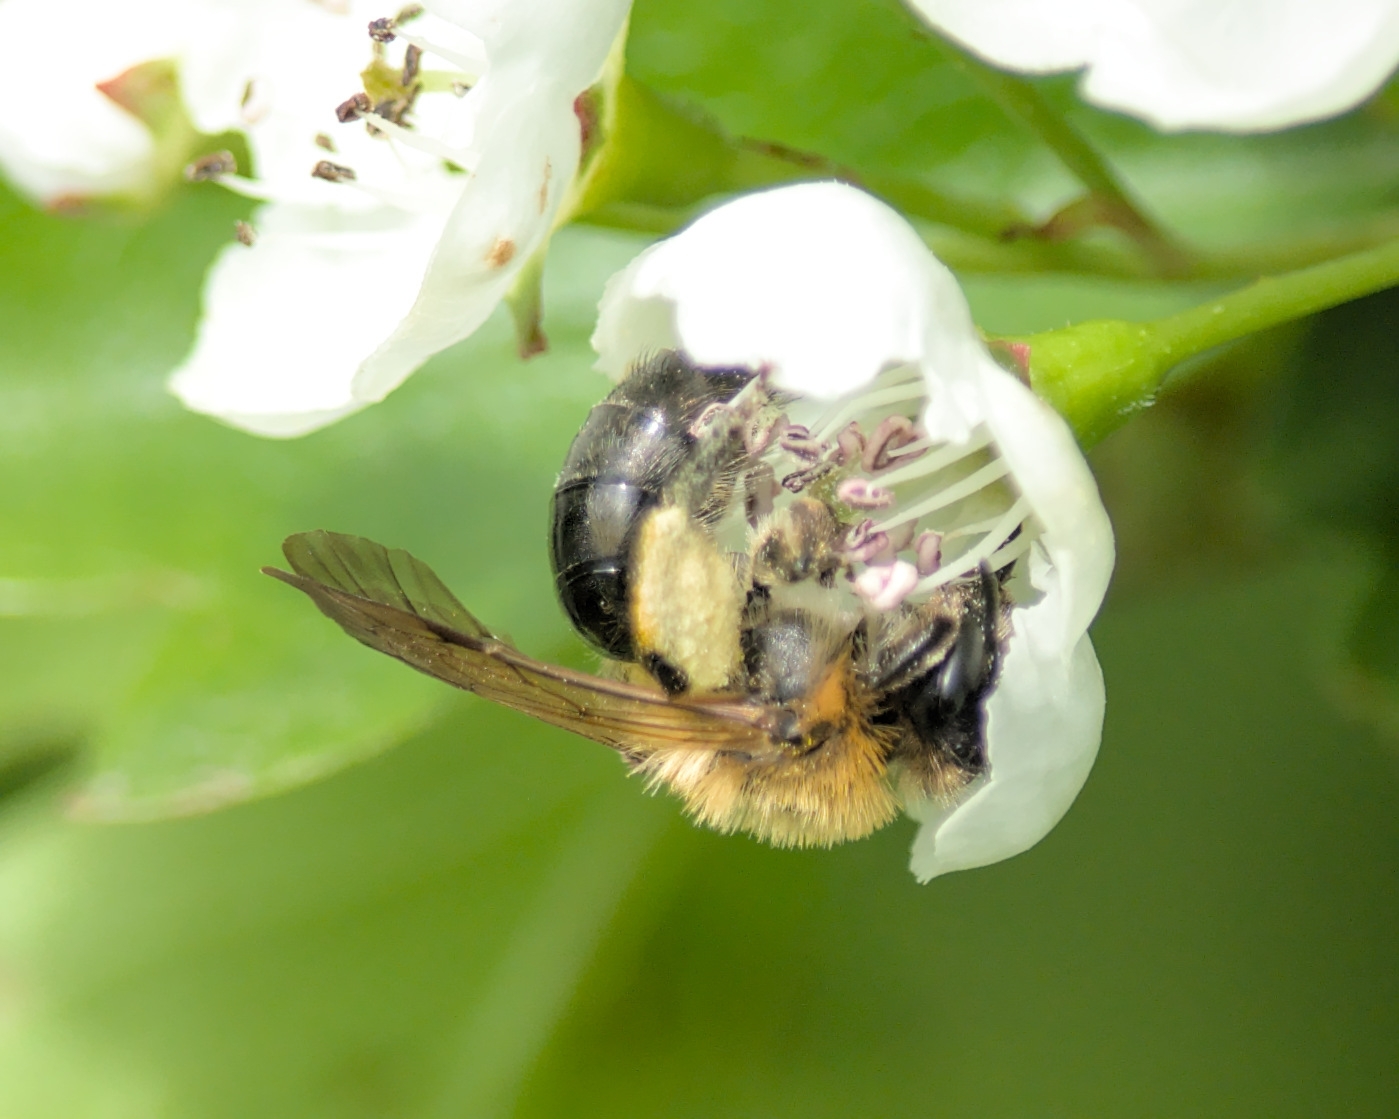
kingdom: Animalia
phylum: Arthropoda
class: Insecta
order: Hymenoptera
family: Andrenidae
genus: Andrena
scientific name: Andrena nitida
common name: Grey-patched mining bee
